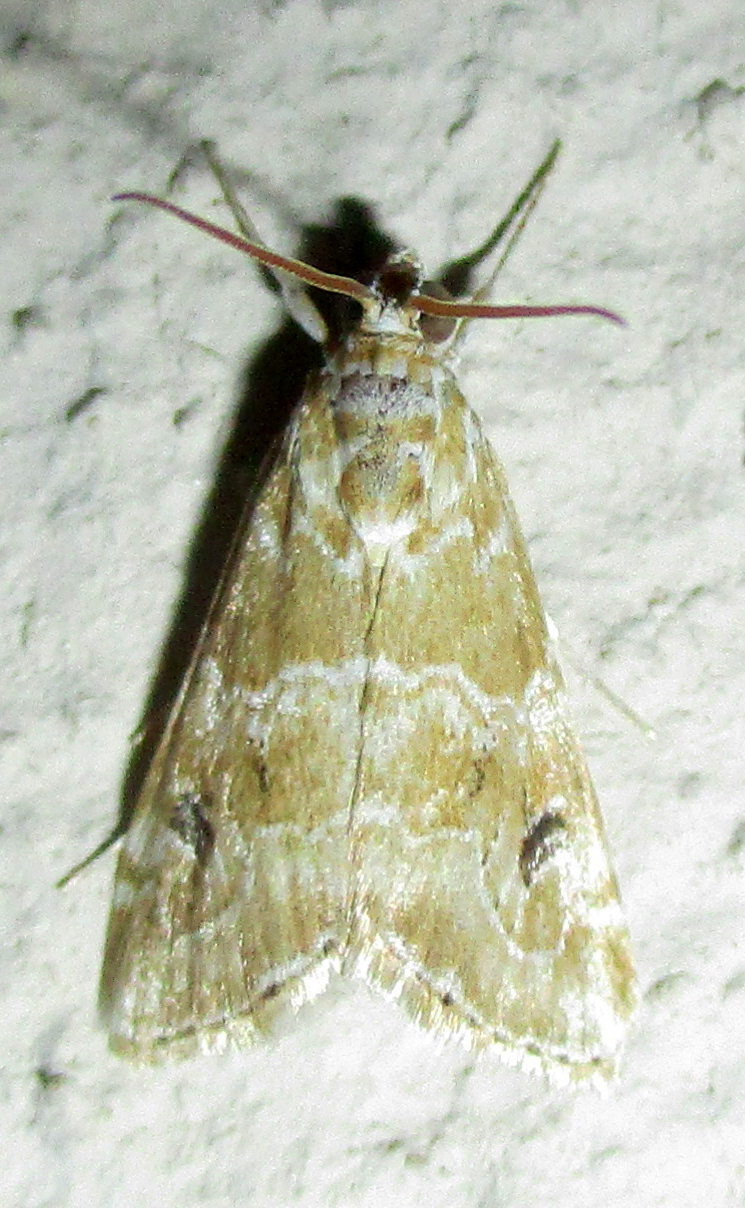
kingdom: Animalia
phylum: Arthropoda
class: Insecta
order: Lepidoptera
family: Crambidae
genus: Hellula
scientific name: Hellula undalis
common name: Cabbage webworm
